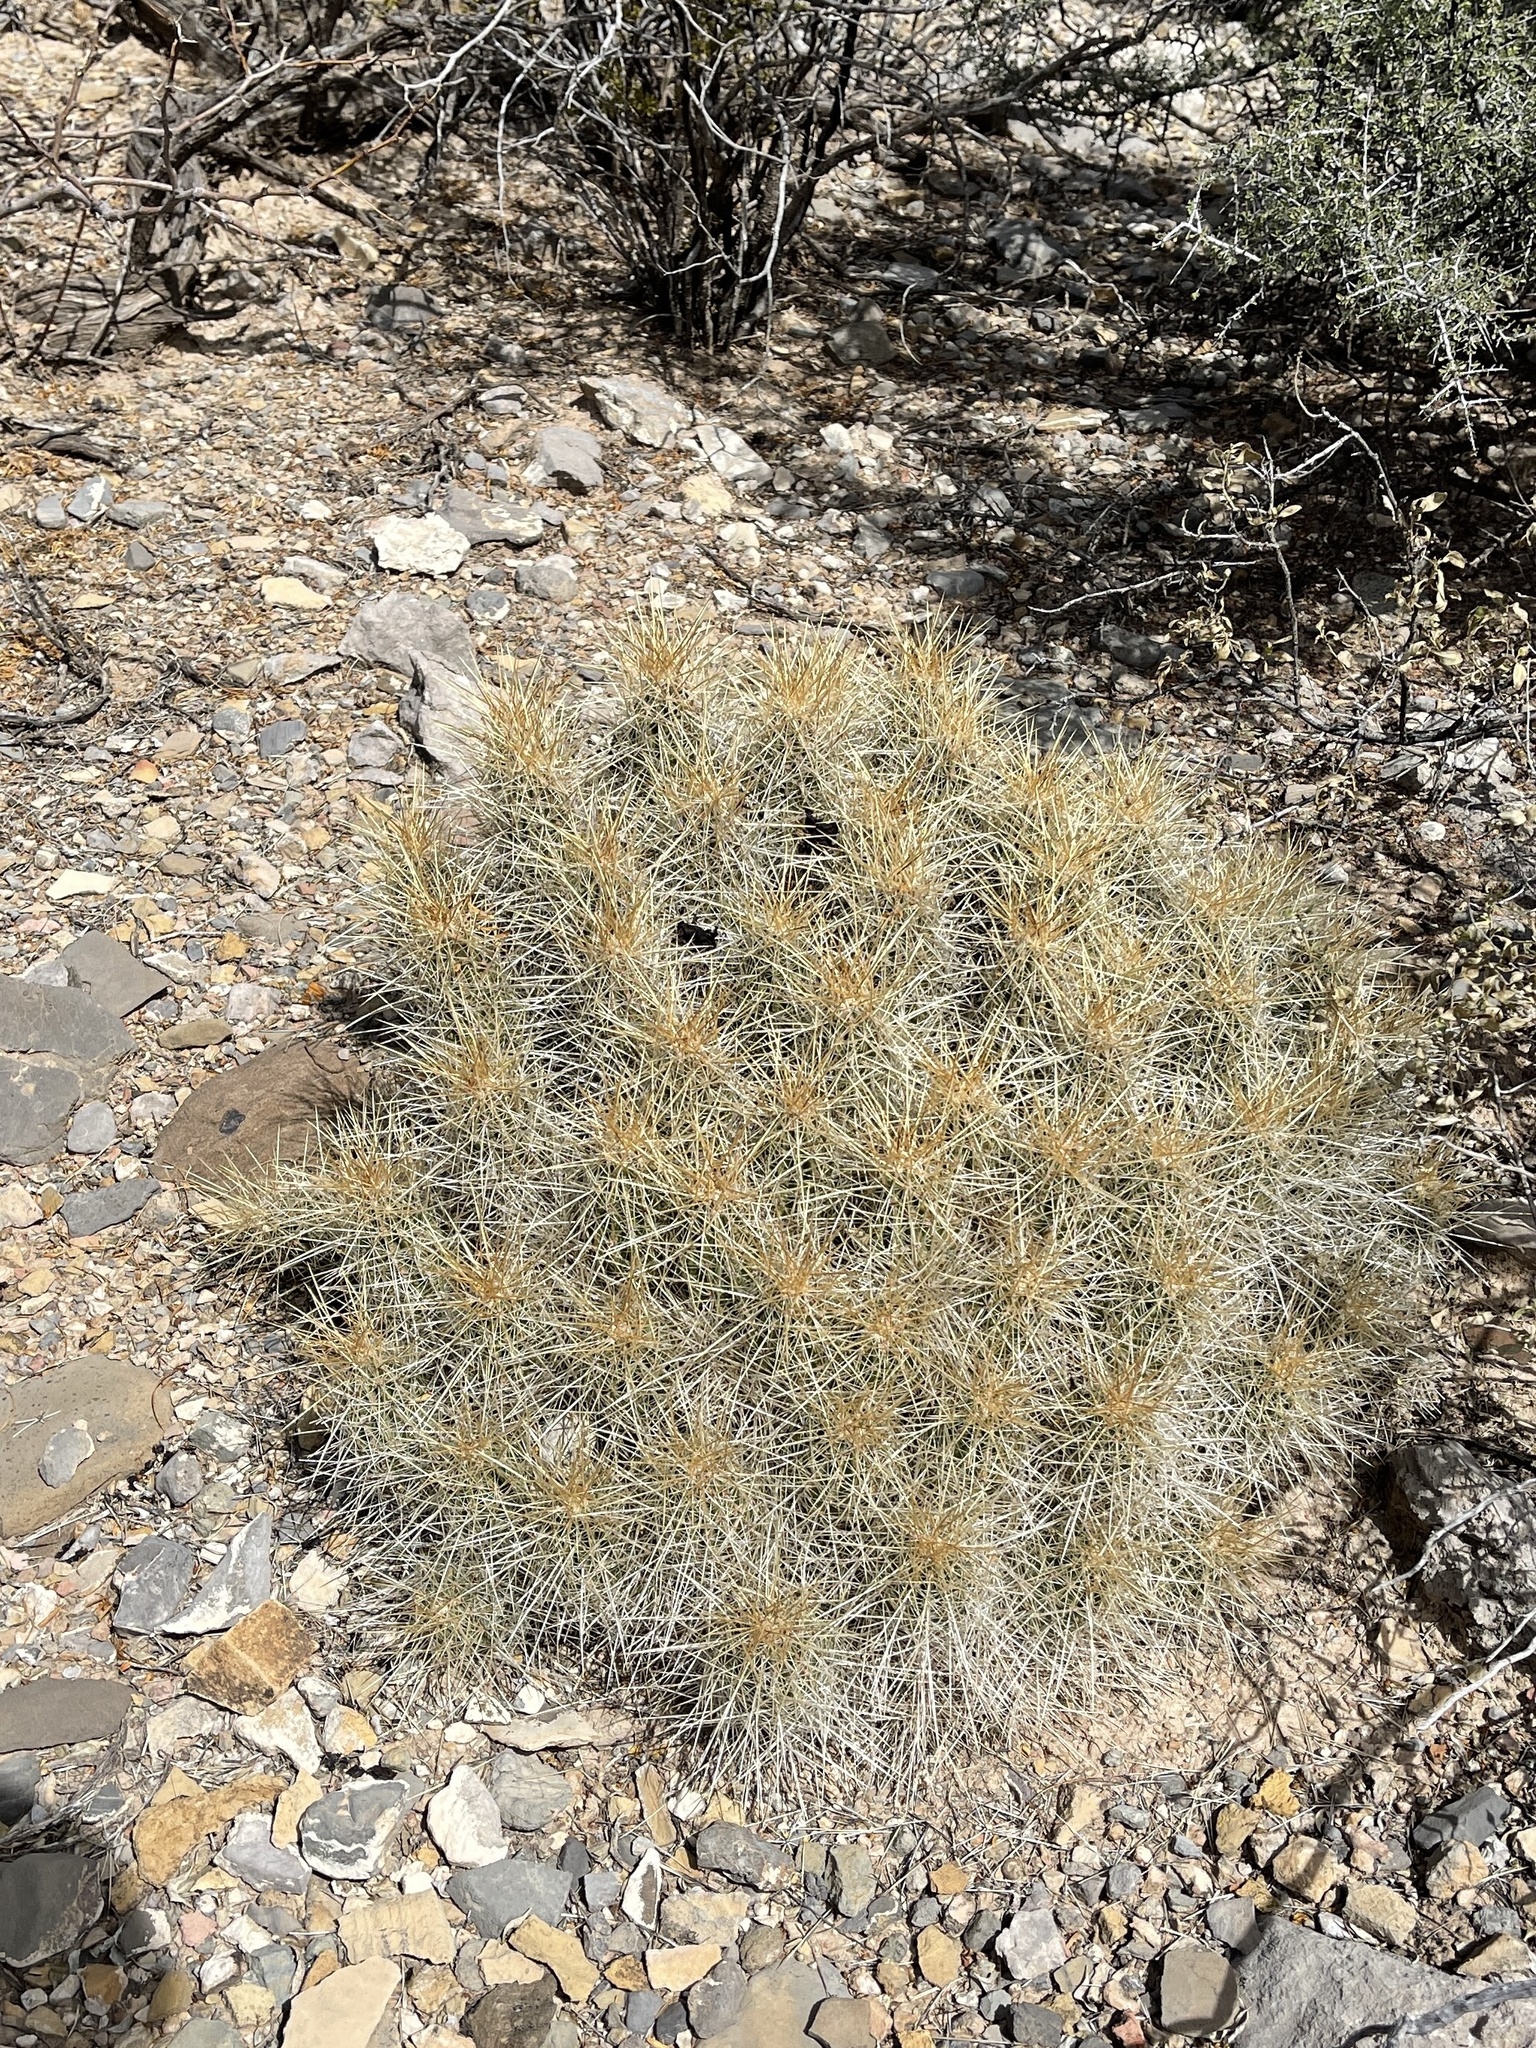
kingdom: Plantae
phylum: Tracheophyta
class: Magnoliopsida
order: Caryophyllales
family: Cactaceae
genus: Echinocereus
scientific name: Echinocereus stramineus
